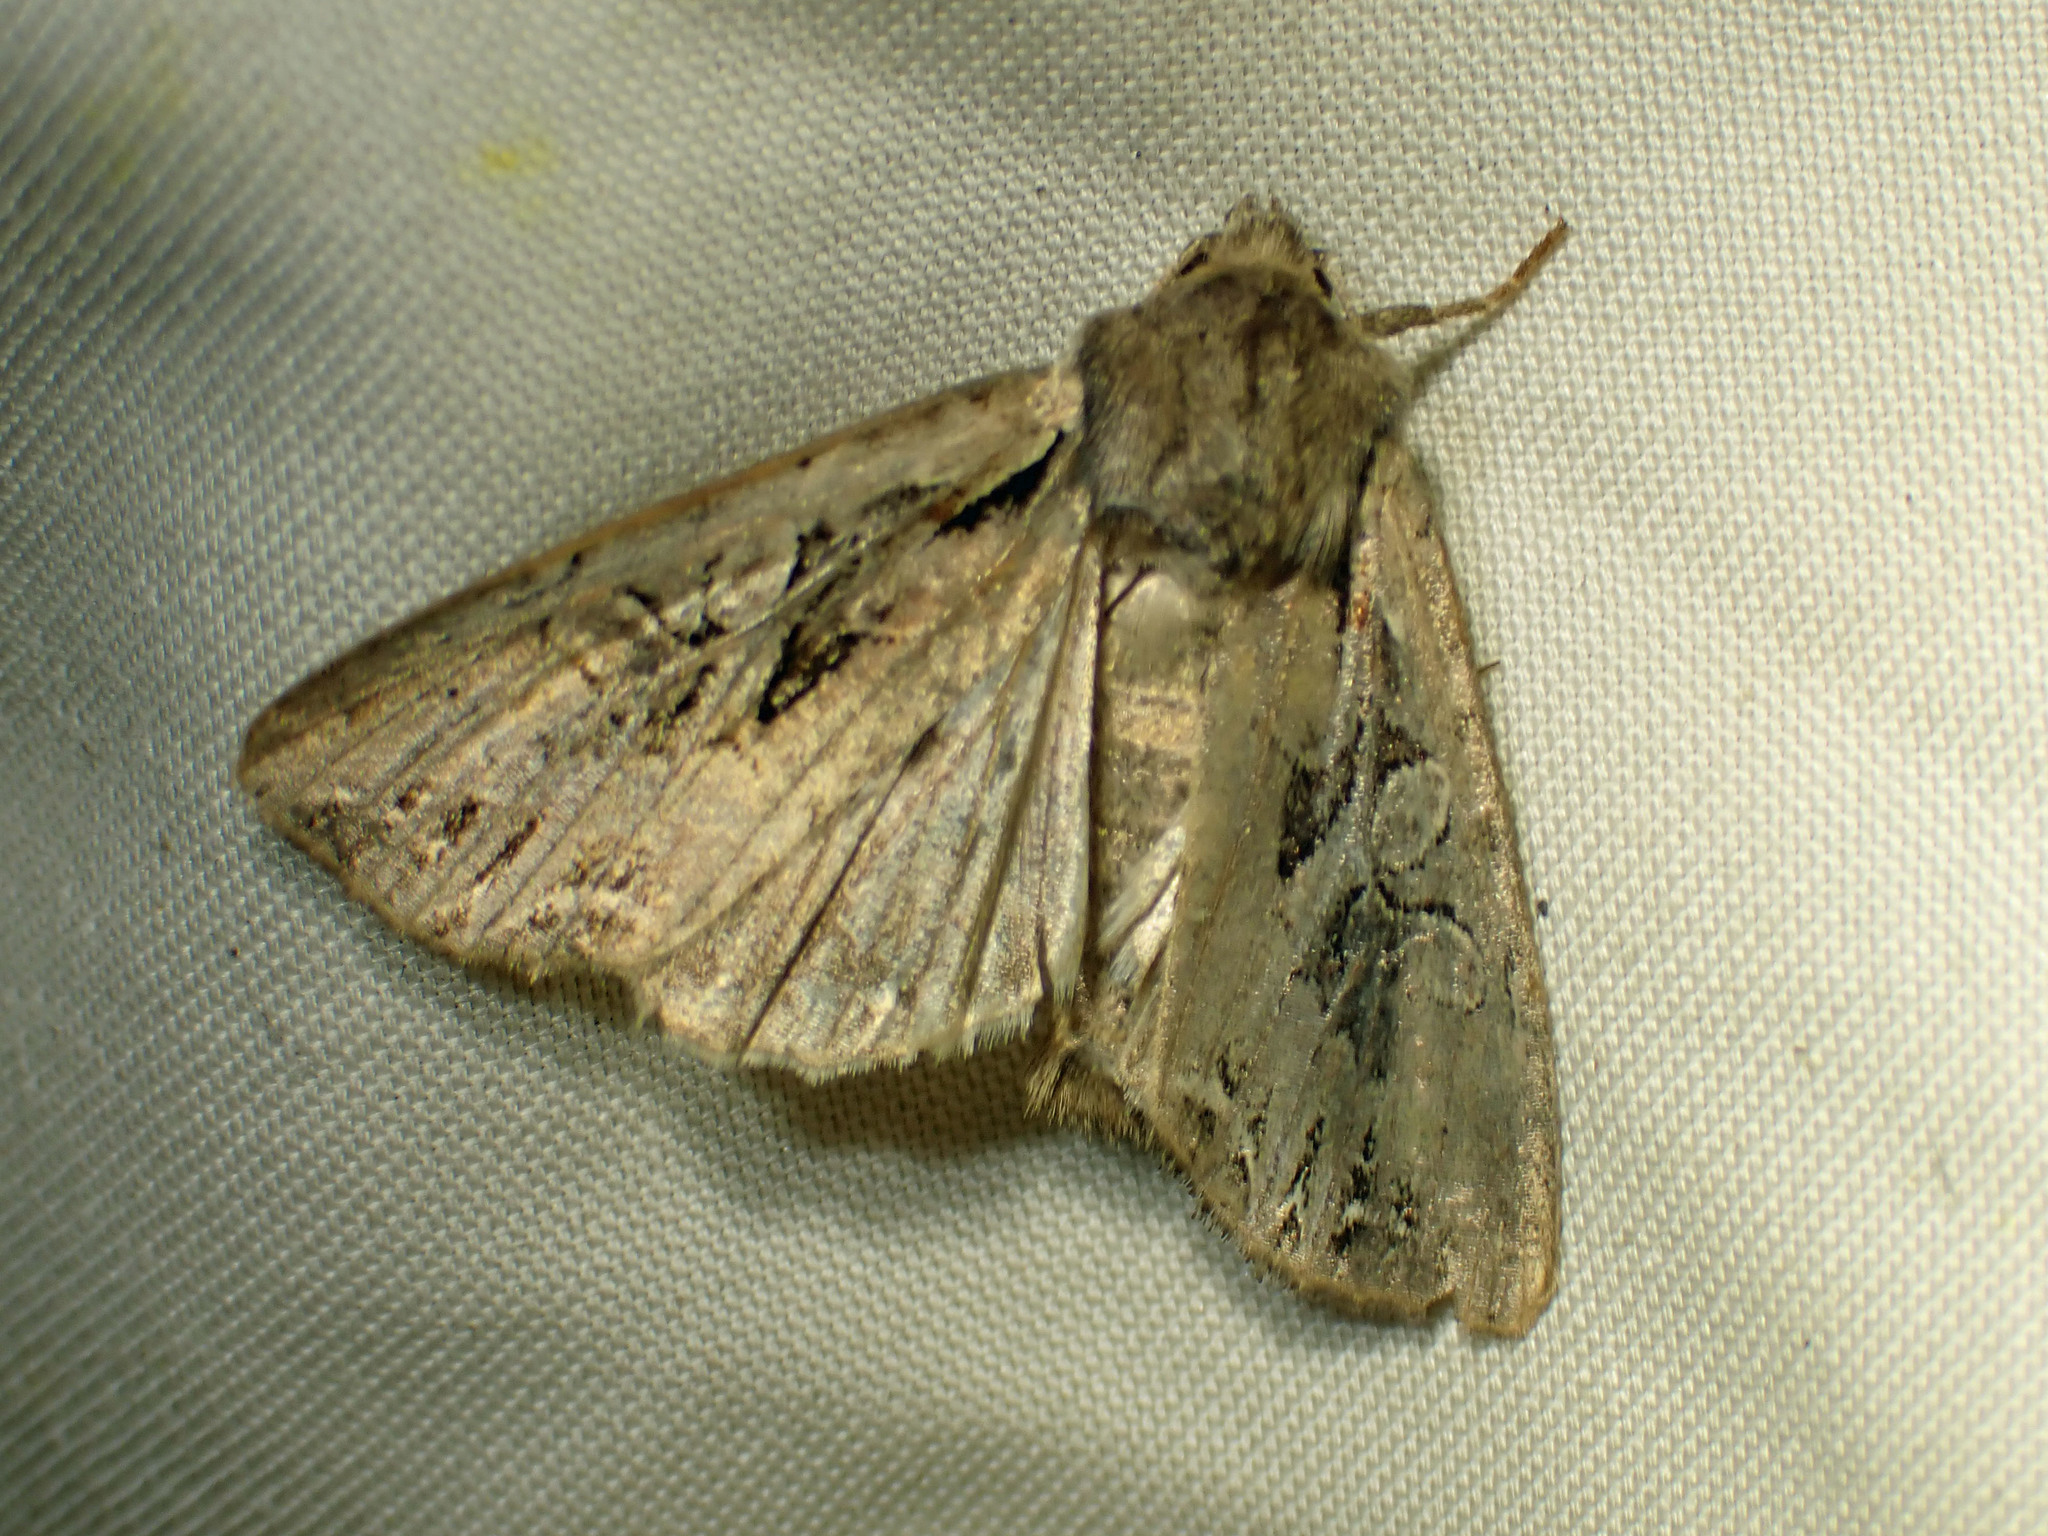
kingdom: Animalia
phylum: Arthropoda
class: Insecta
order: Lepidoptera
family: Noctuidae
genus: Lacanobia
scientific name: Lacanobia atlantica
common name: Atlantic arches moth
